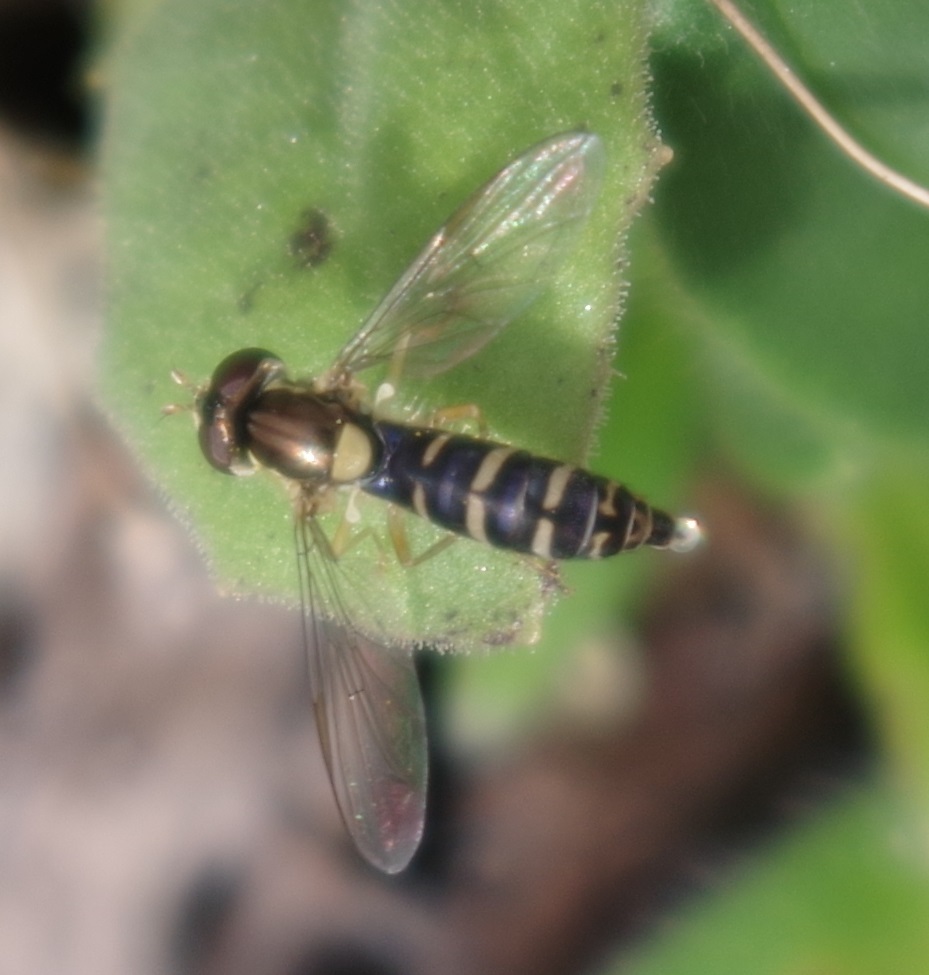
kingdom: Animalia
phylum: Arthropoda
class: Insecta
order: Diptera
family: Syrphidae
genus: Sphaerophoria
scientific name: Sphaerophoria
